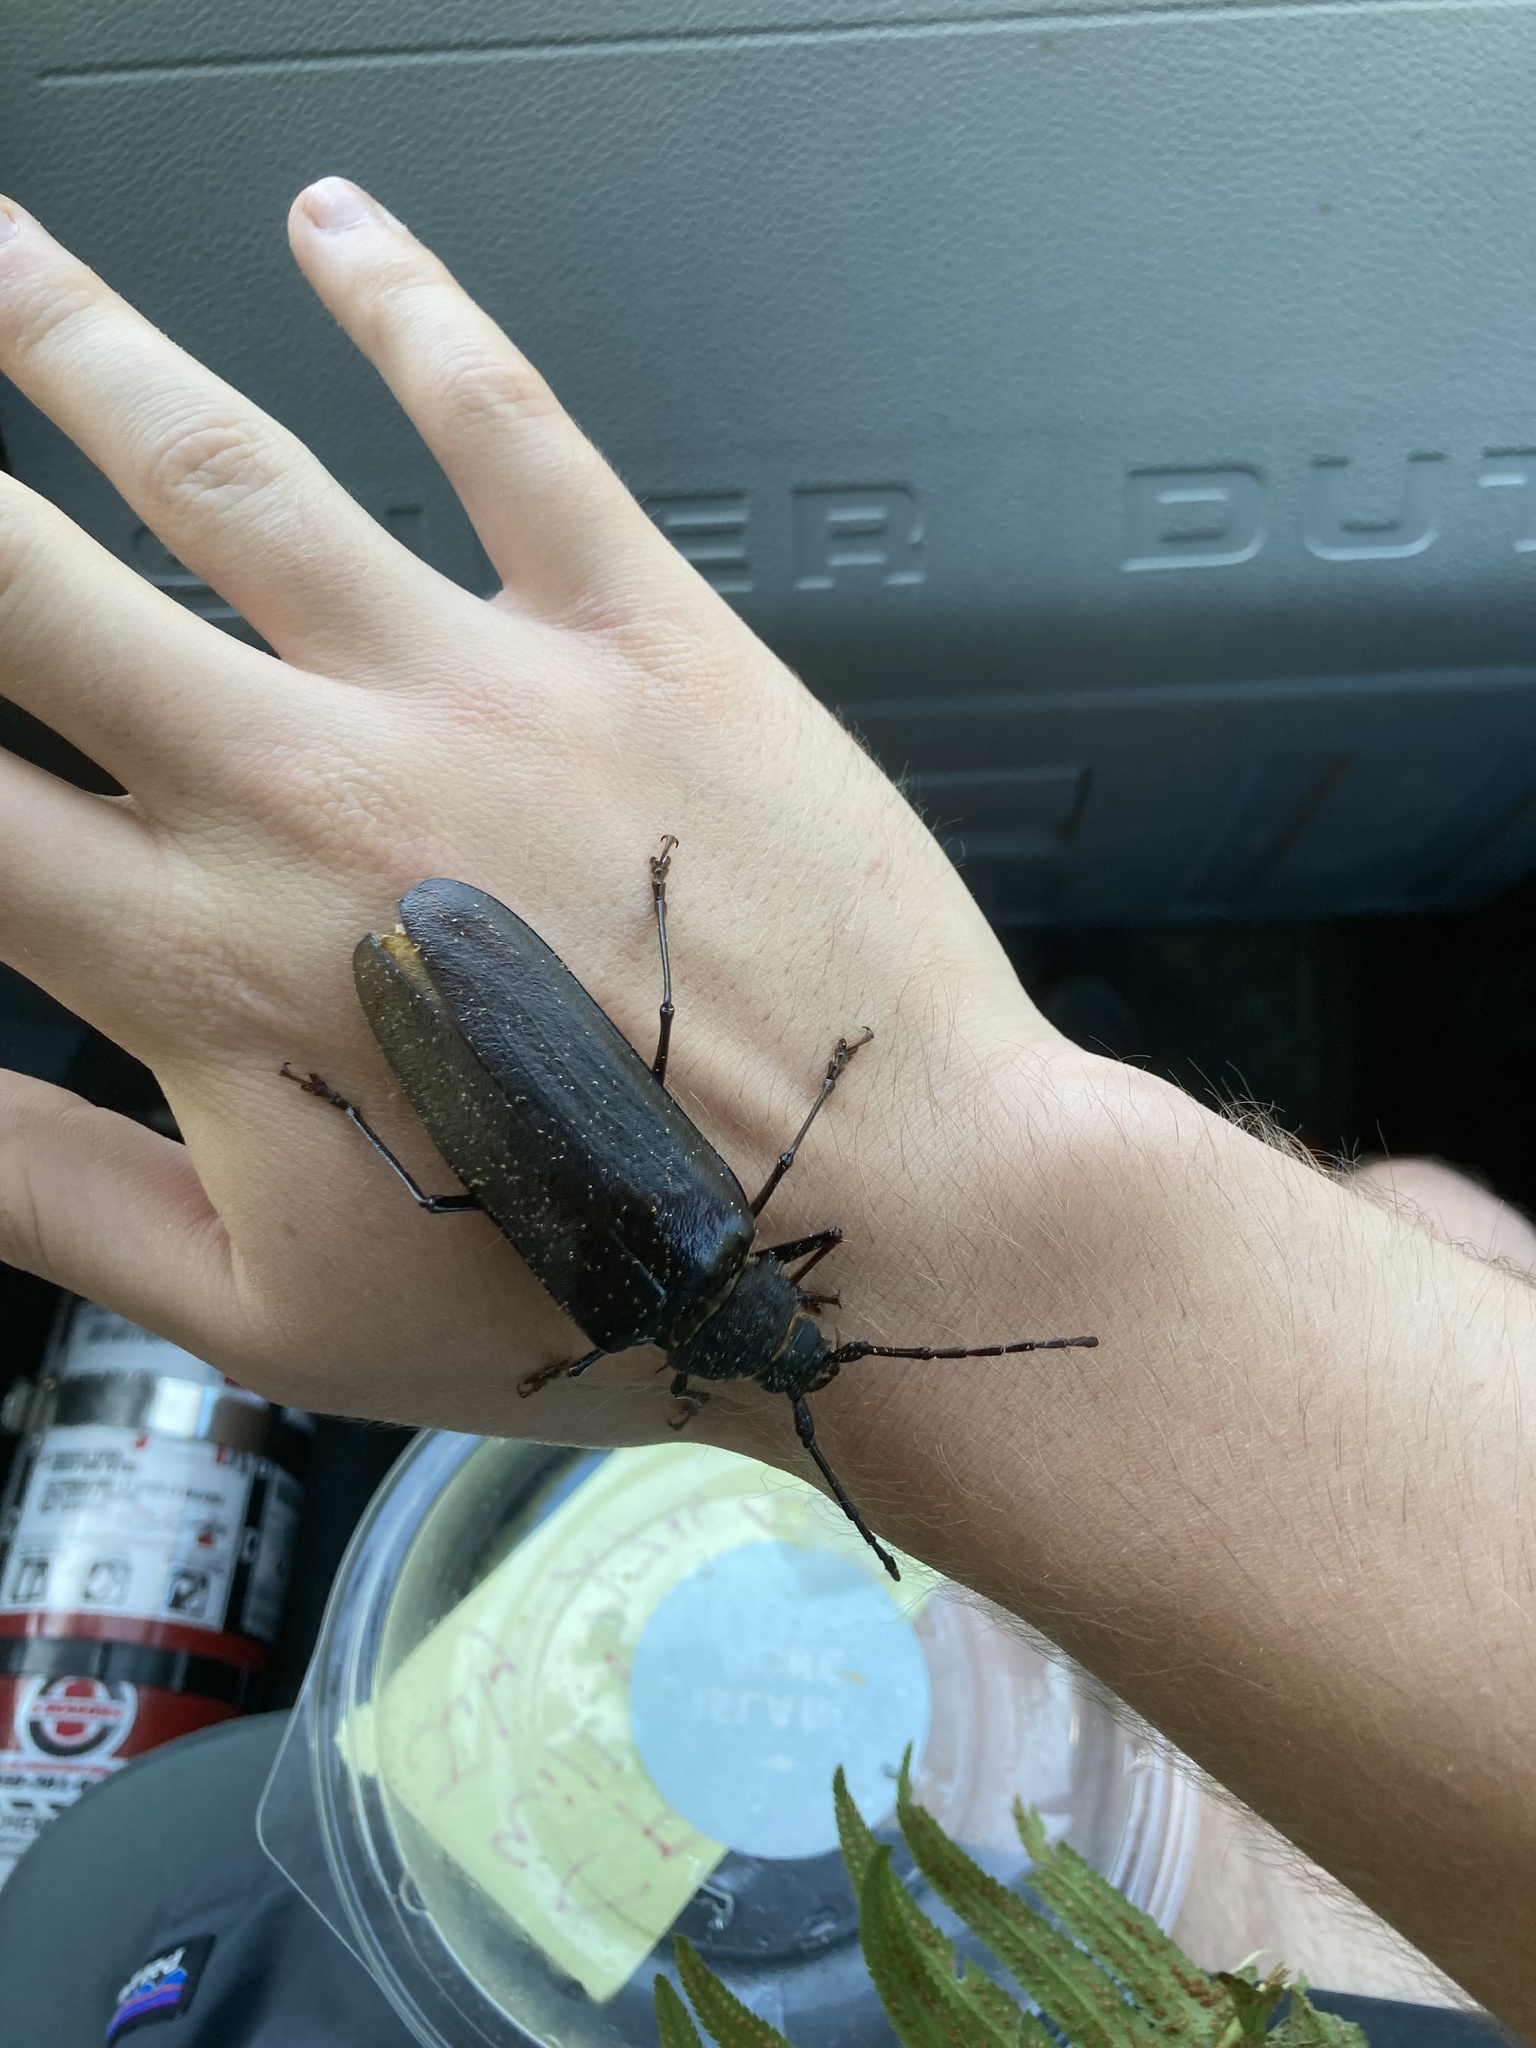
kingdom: Animalia
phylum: Arthropoda
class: Insecta
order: Coleoptera
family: Cerambycidae
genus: Trichocnemis
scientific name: Trichocnemis spiculatus
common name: Long-horned beetle
